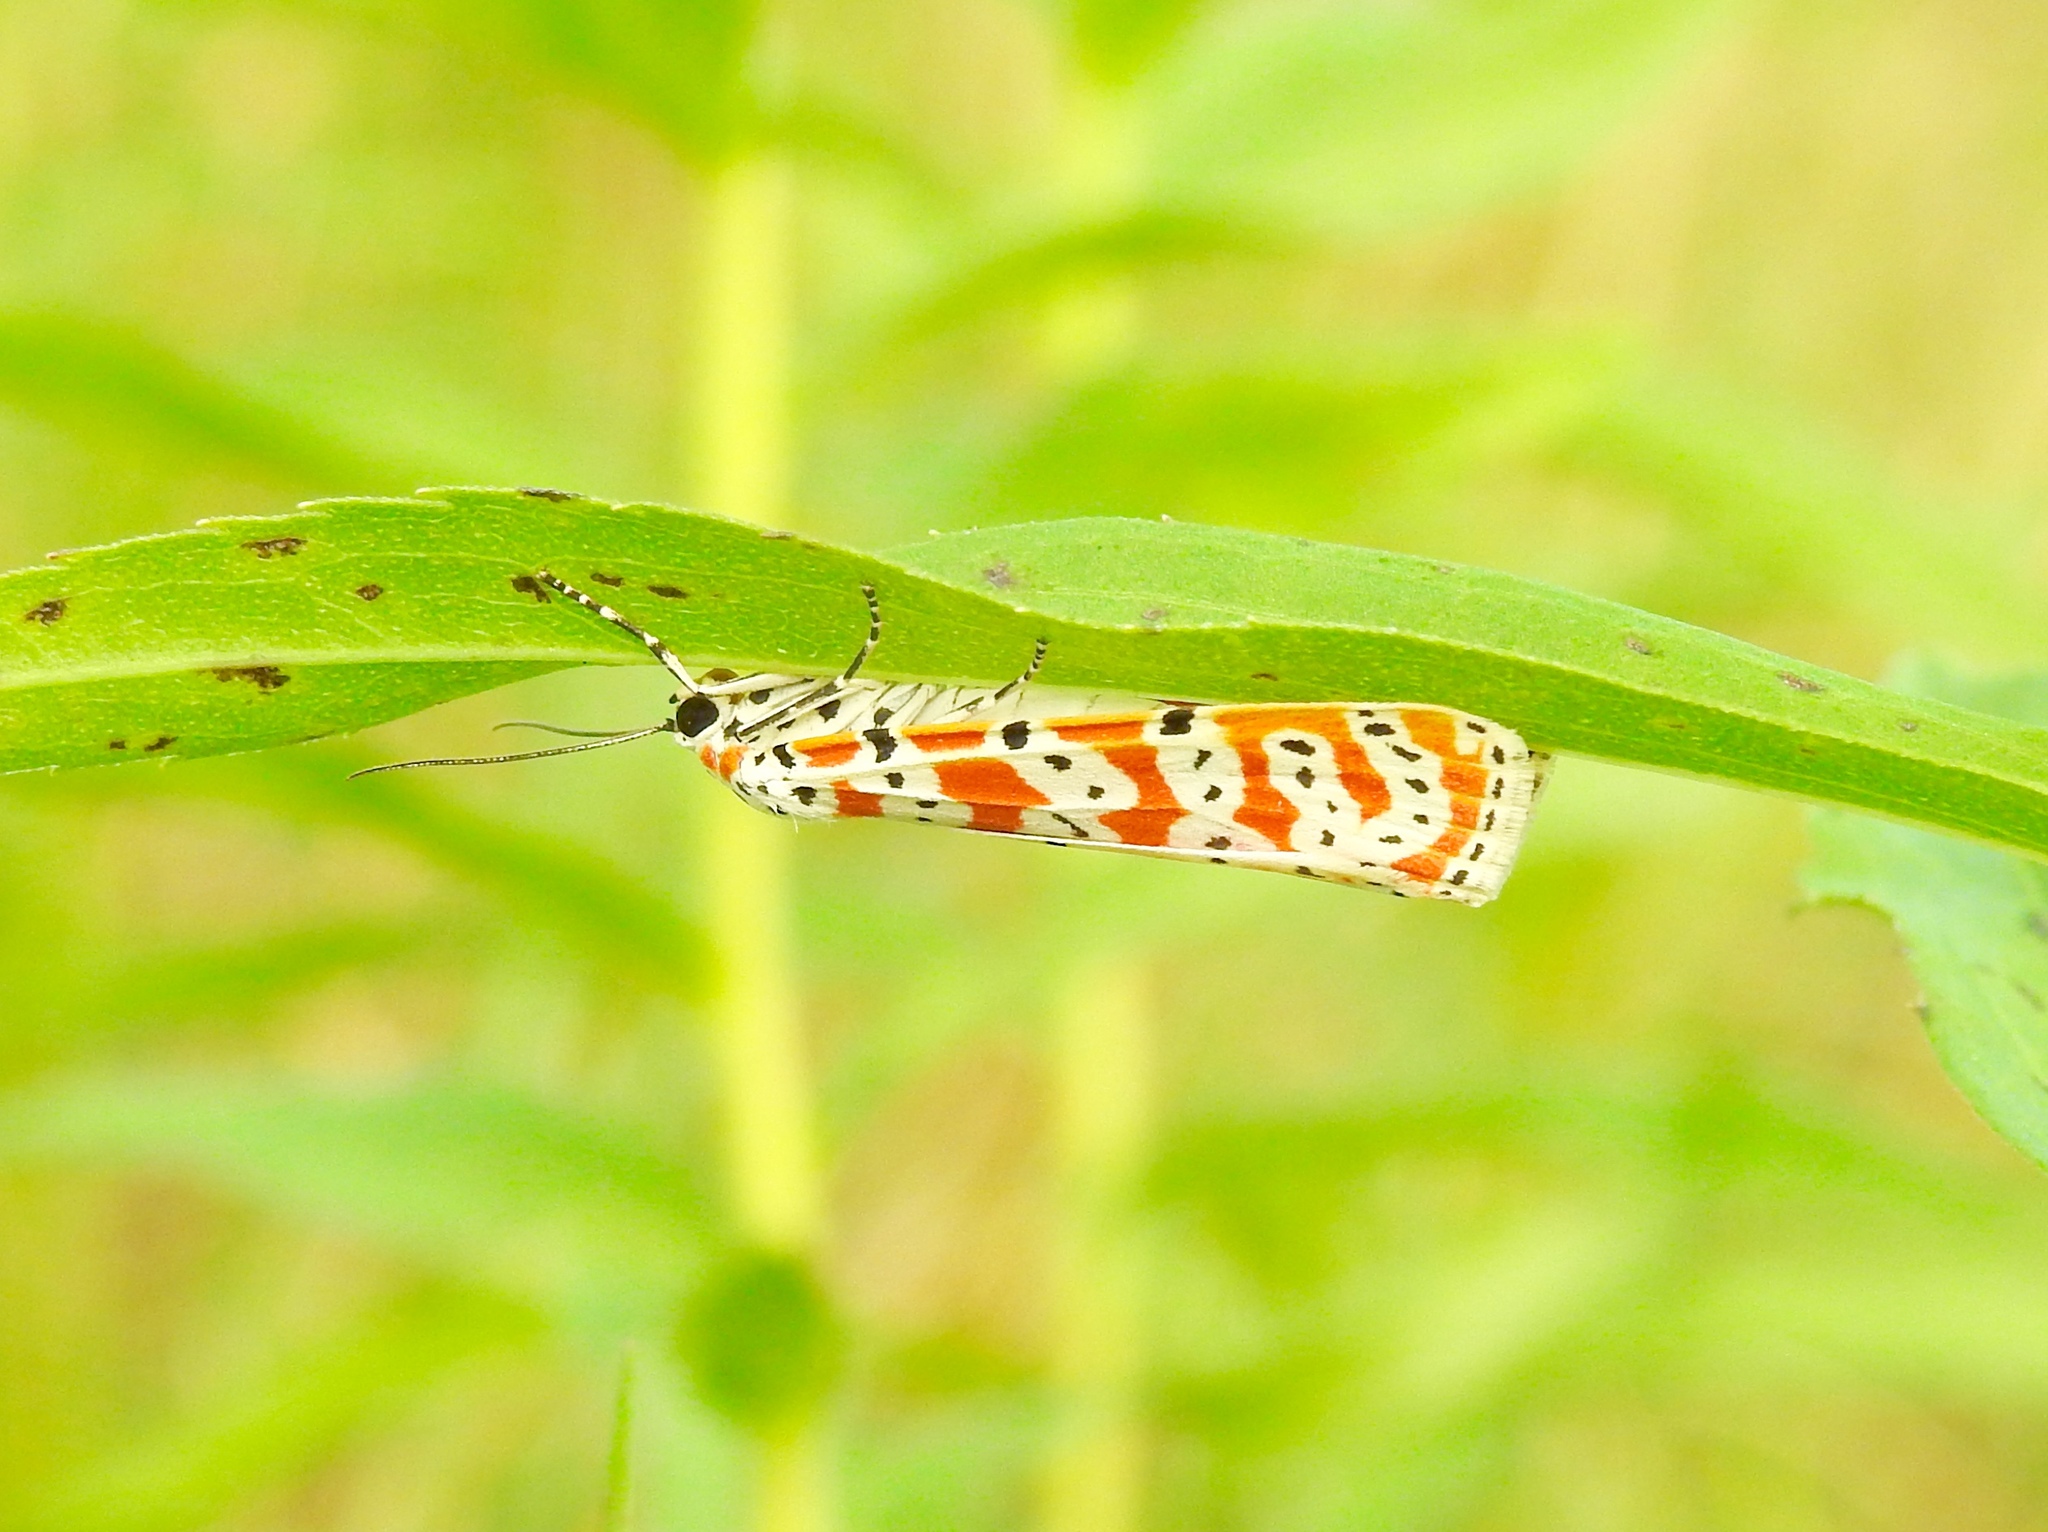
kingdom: Animalia
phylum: Arthropoda
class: Insecta
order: Lepidoptera
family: Erebidae
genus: Utetheisa
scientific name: Utetheisa ornatrix
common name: Beautiful utetheisa
